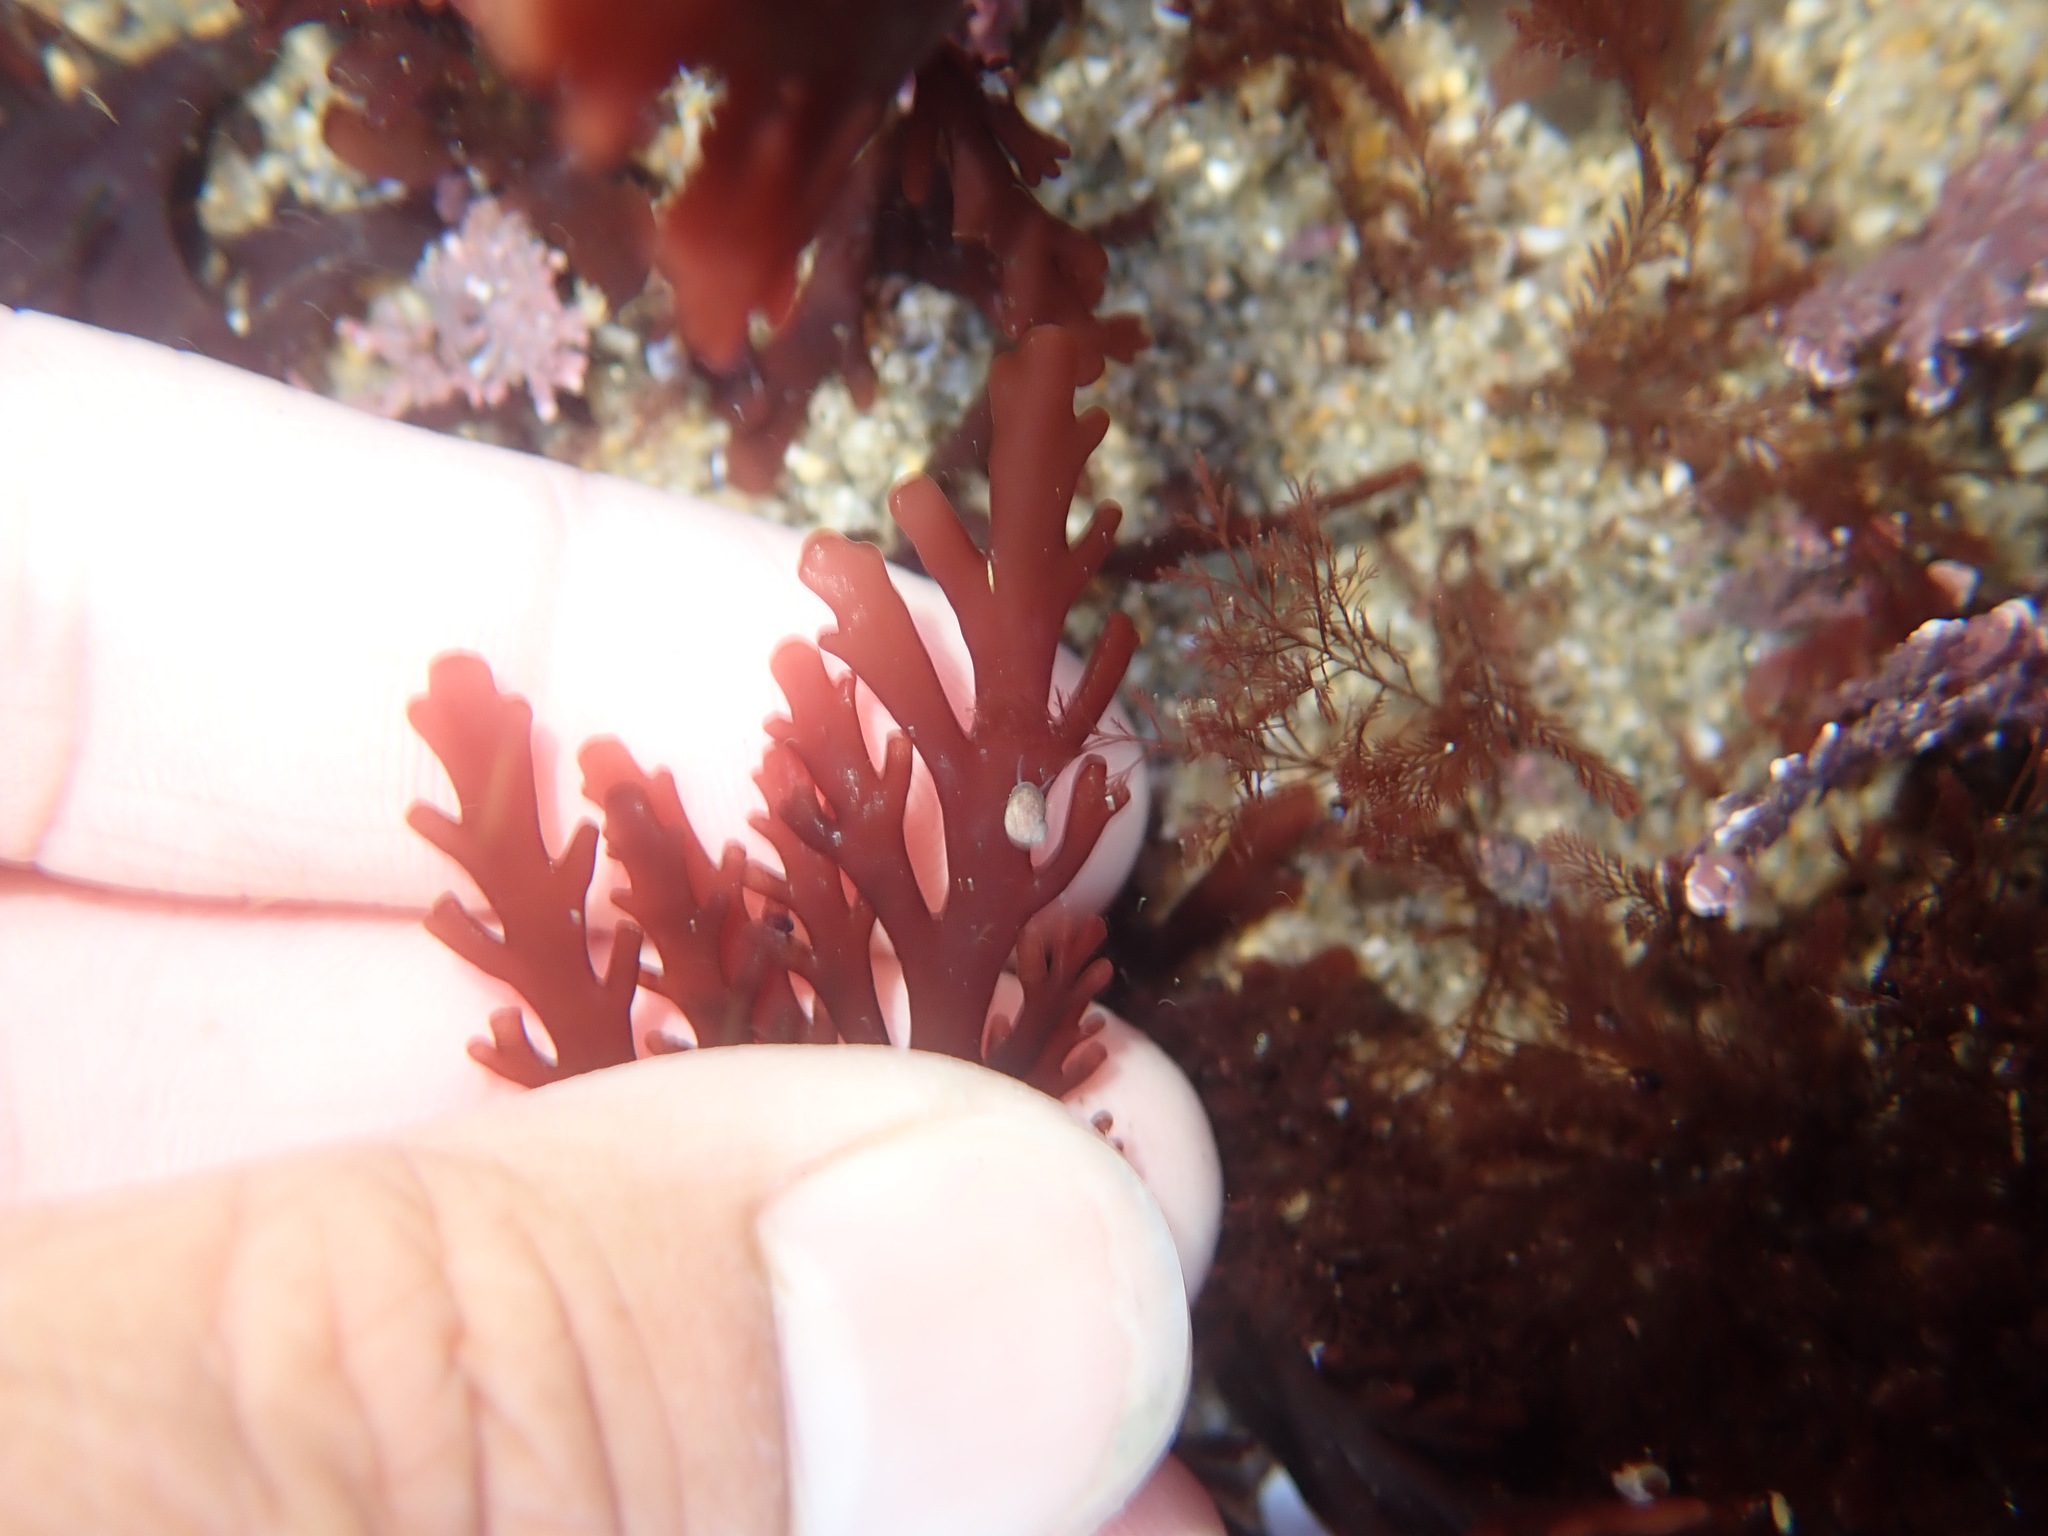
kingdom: Plantae
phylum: Rhodophyta
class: Florideophyceae
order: Ceramiales
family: Rhodomelaceae
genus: Osmundea
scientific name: Osmundea spectabilis
